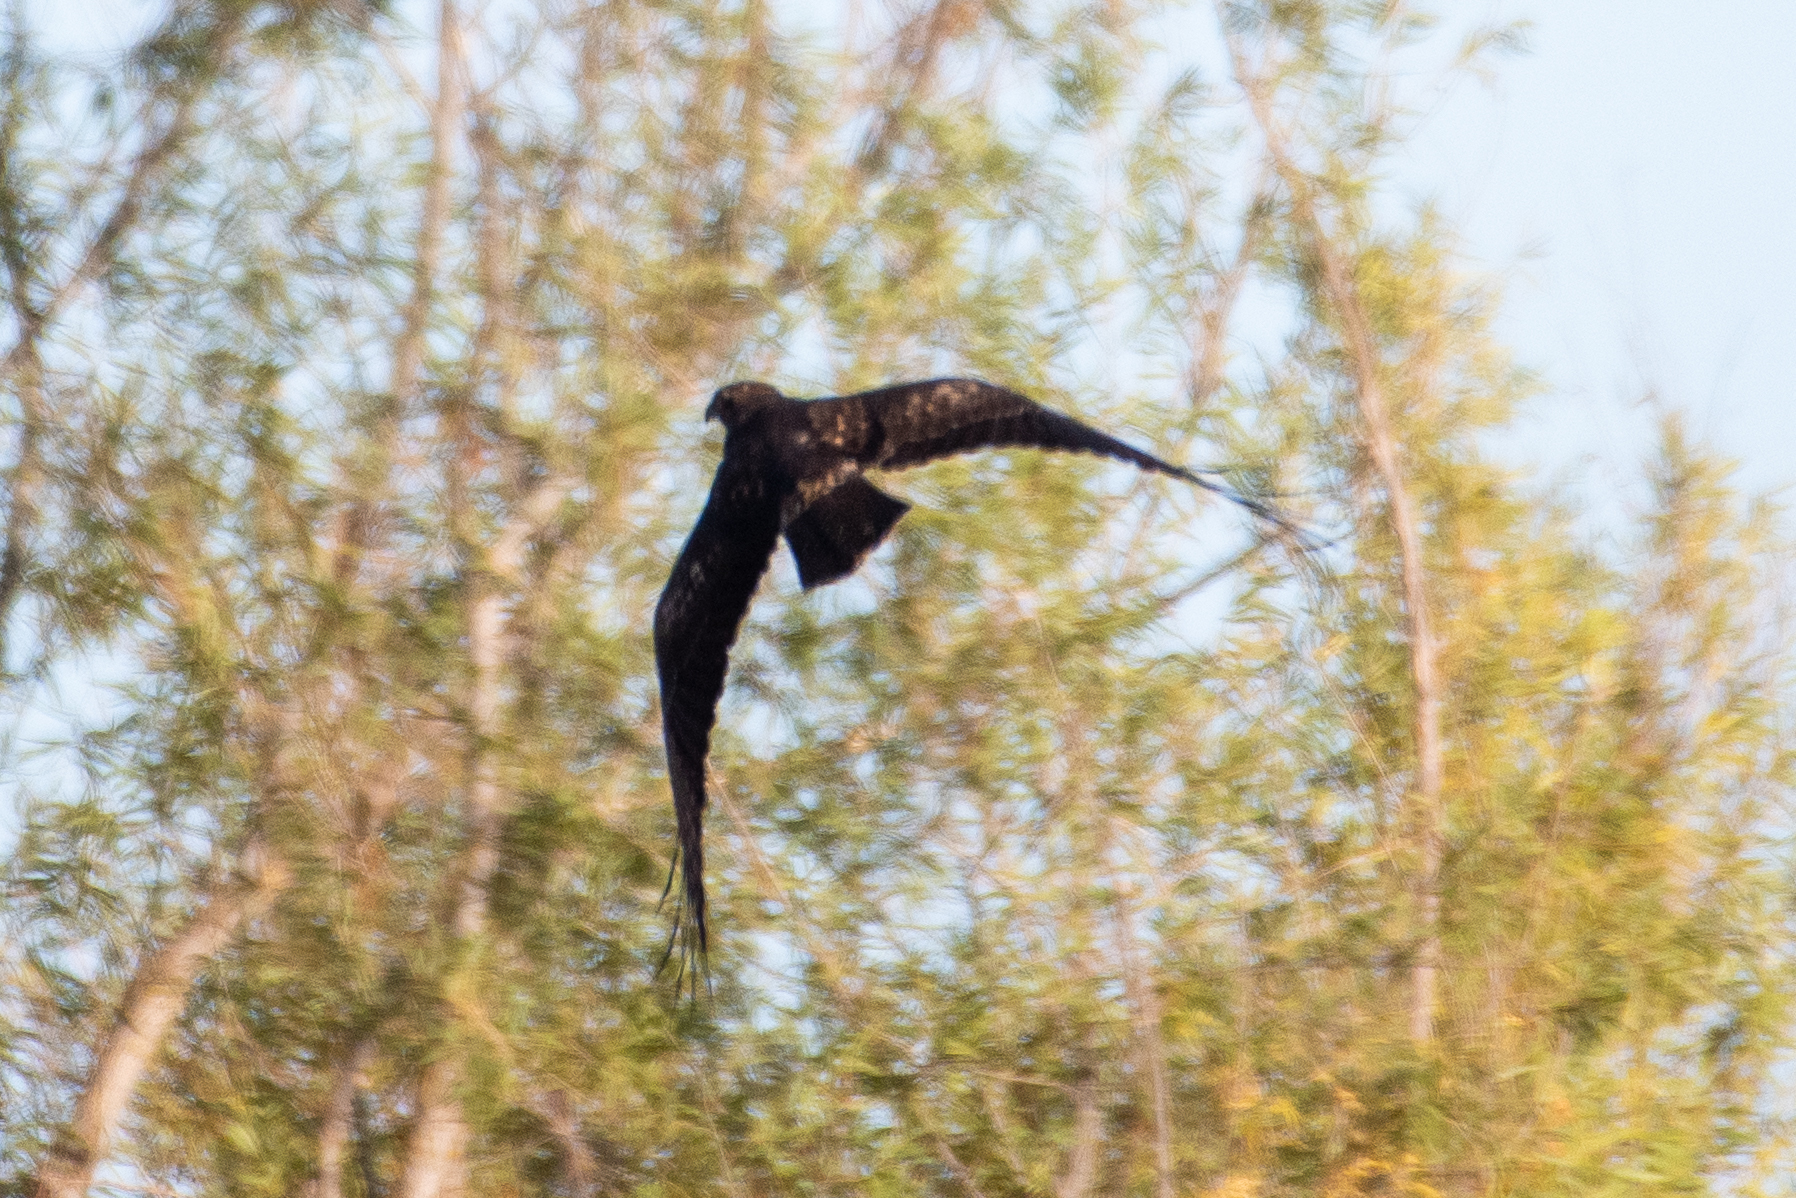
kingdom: Animalia
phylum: Chordata
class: Aves
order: Accipitriformes
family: Accipitridae
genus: Buteo
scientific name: Buteo jamaicensis
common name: Red-tailed hawk
